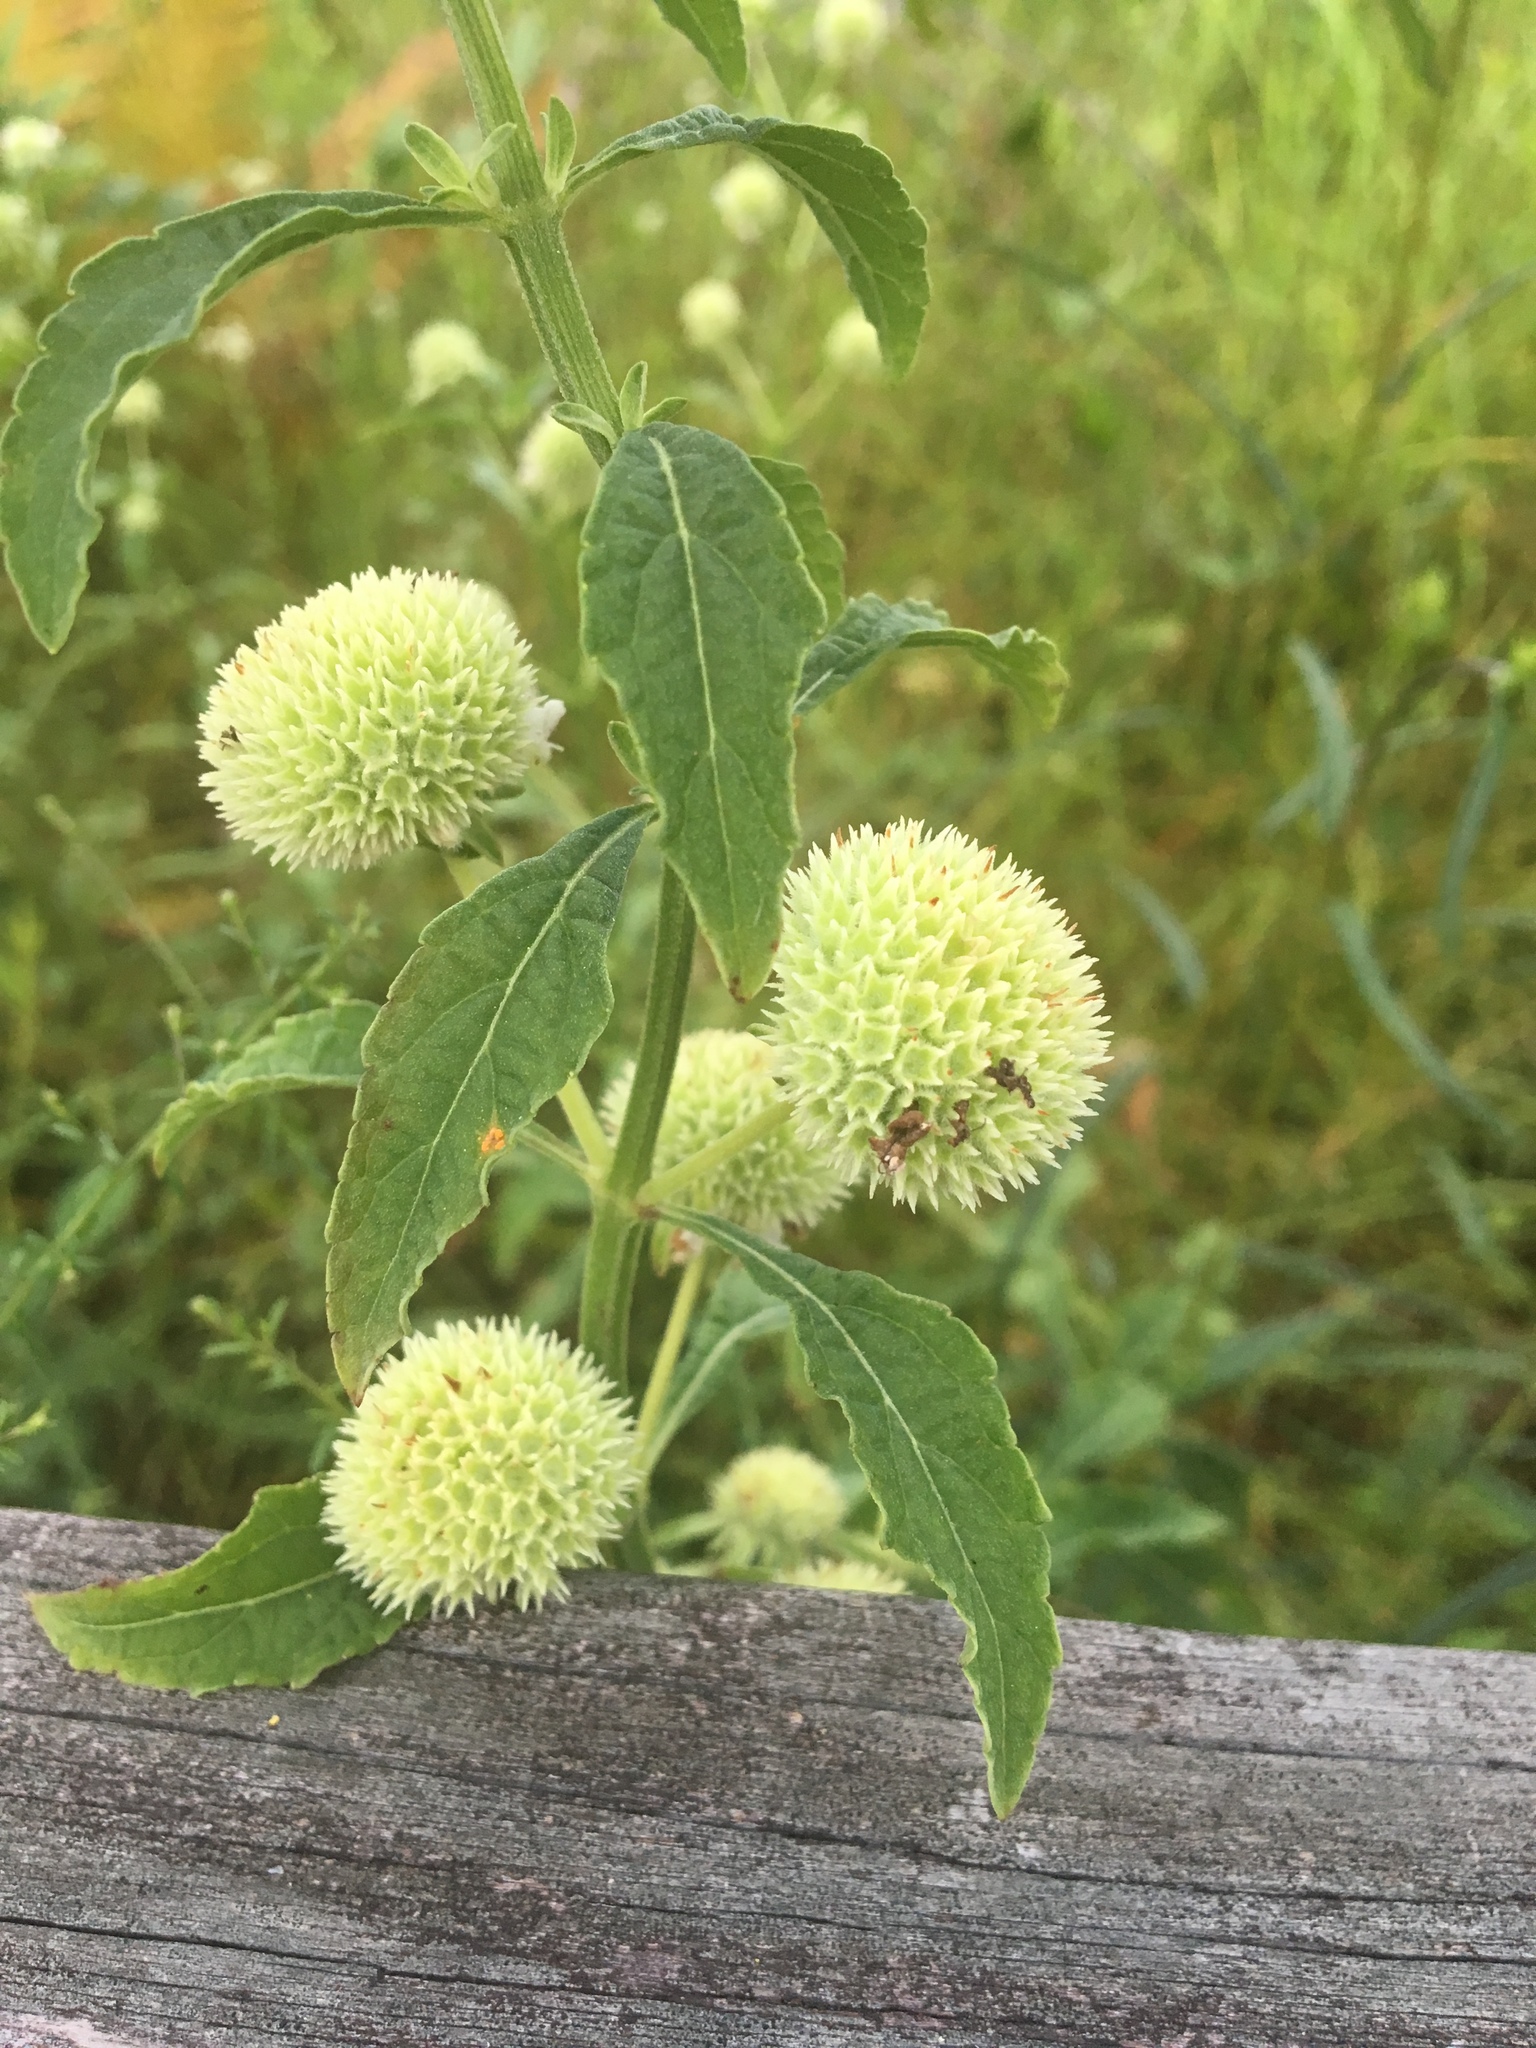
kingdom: Plantae
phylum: Tracheophyta
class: Magnoliopsida
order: Lamiales
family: Lamiaceae
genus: Hyptis
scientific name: Hyptis alata
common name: Cluster bush-mint
